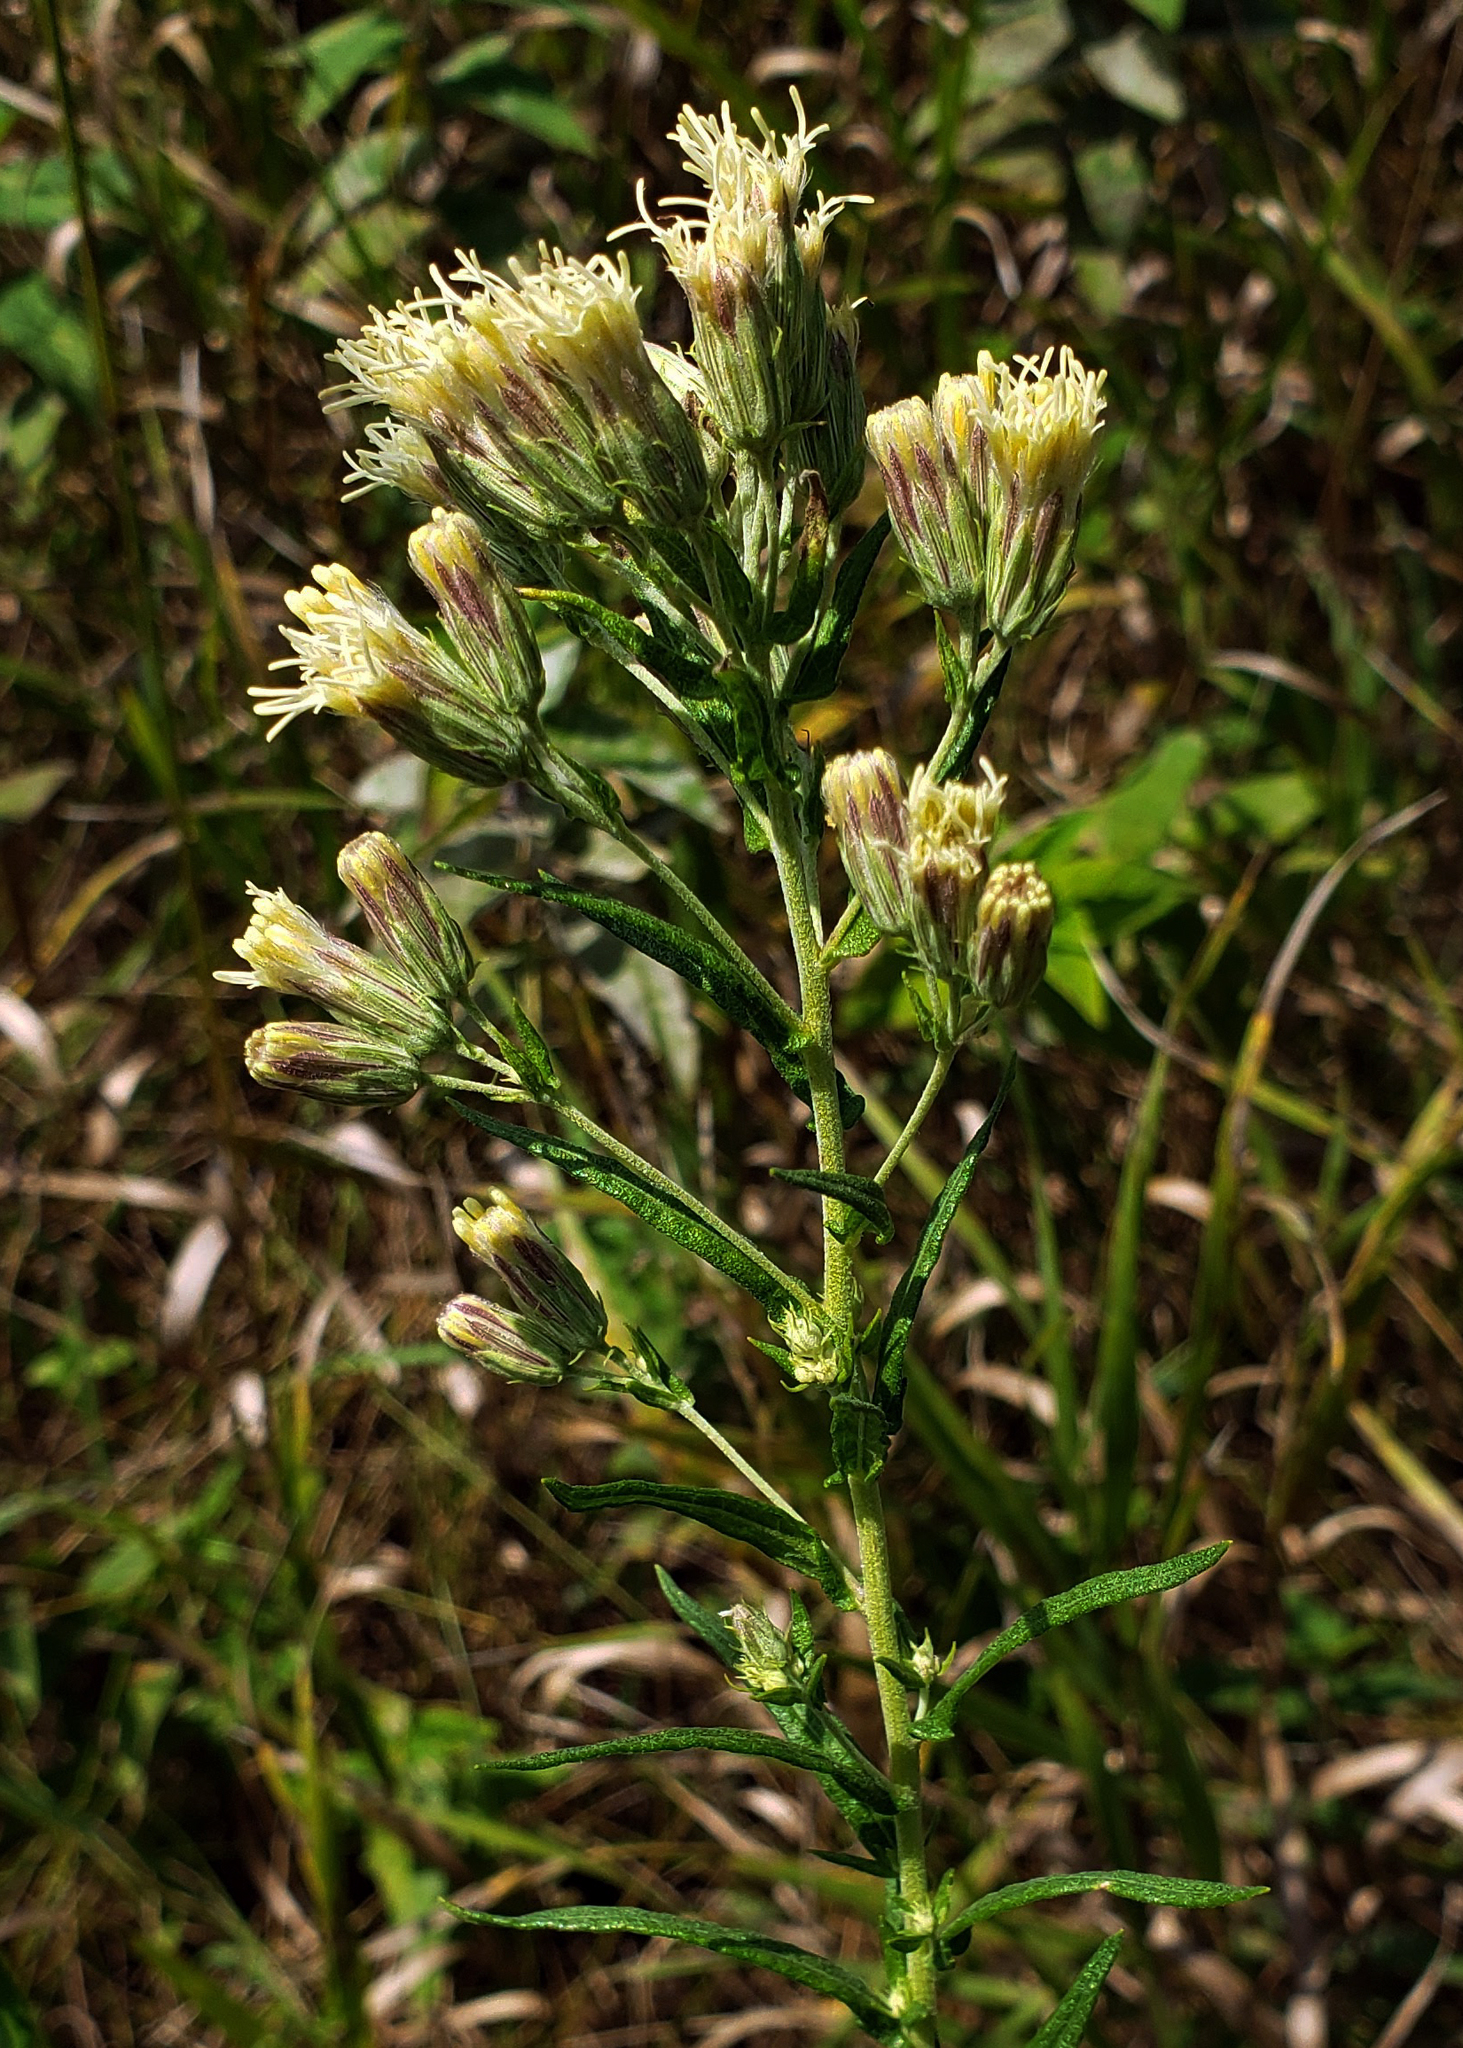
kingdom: Plantae
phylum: Tracheophyta
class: Magnoliopsida
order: Asterales
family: Asteraceae
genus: Brickellia
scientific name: Brickellia eupatorioides
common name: False boneset
